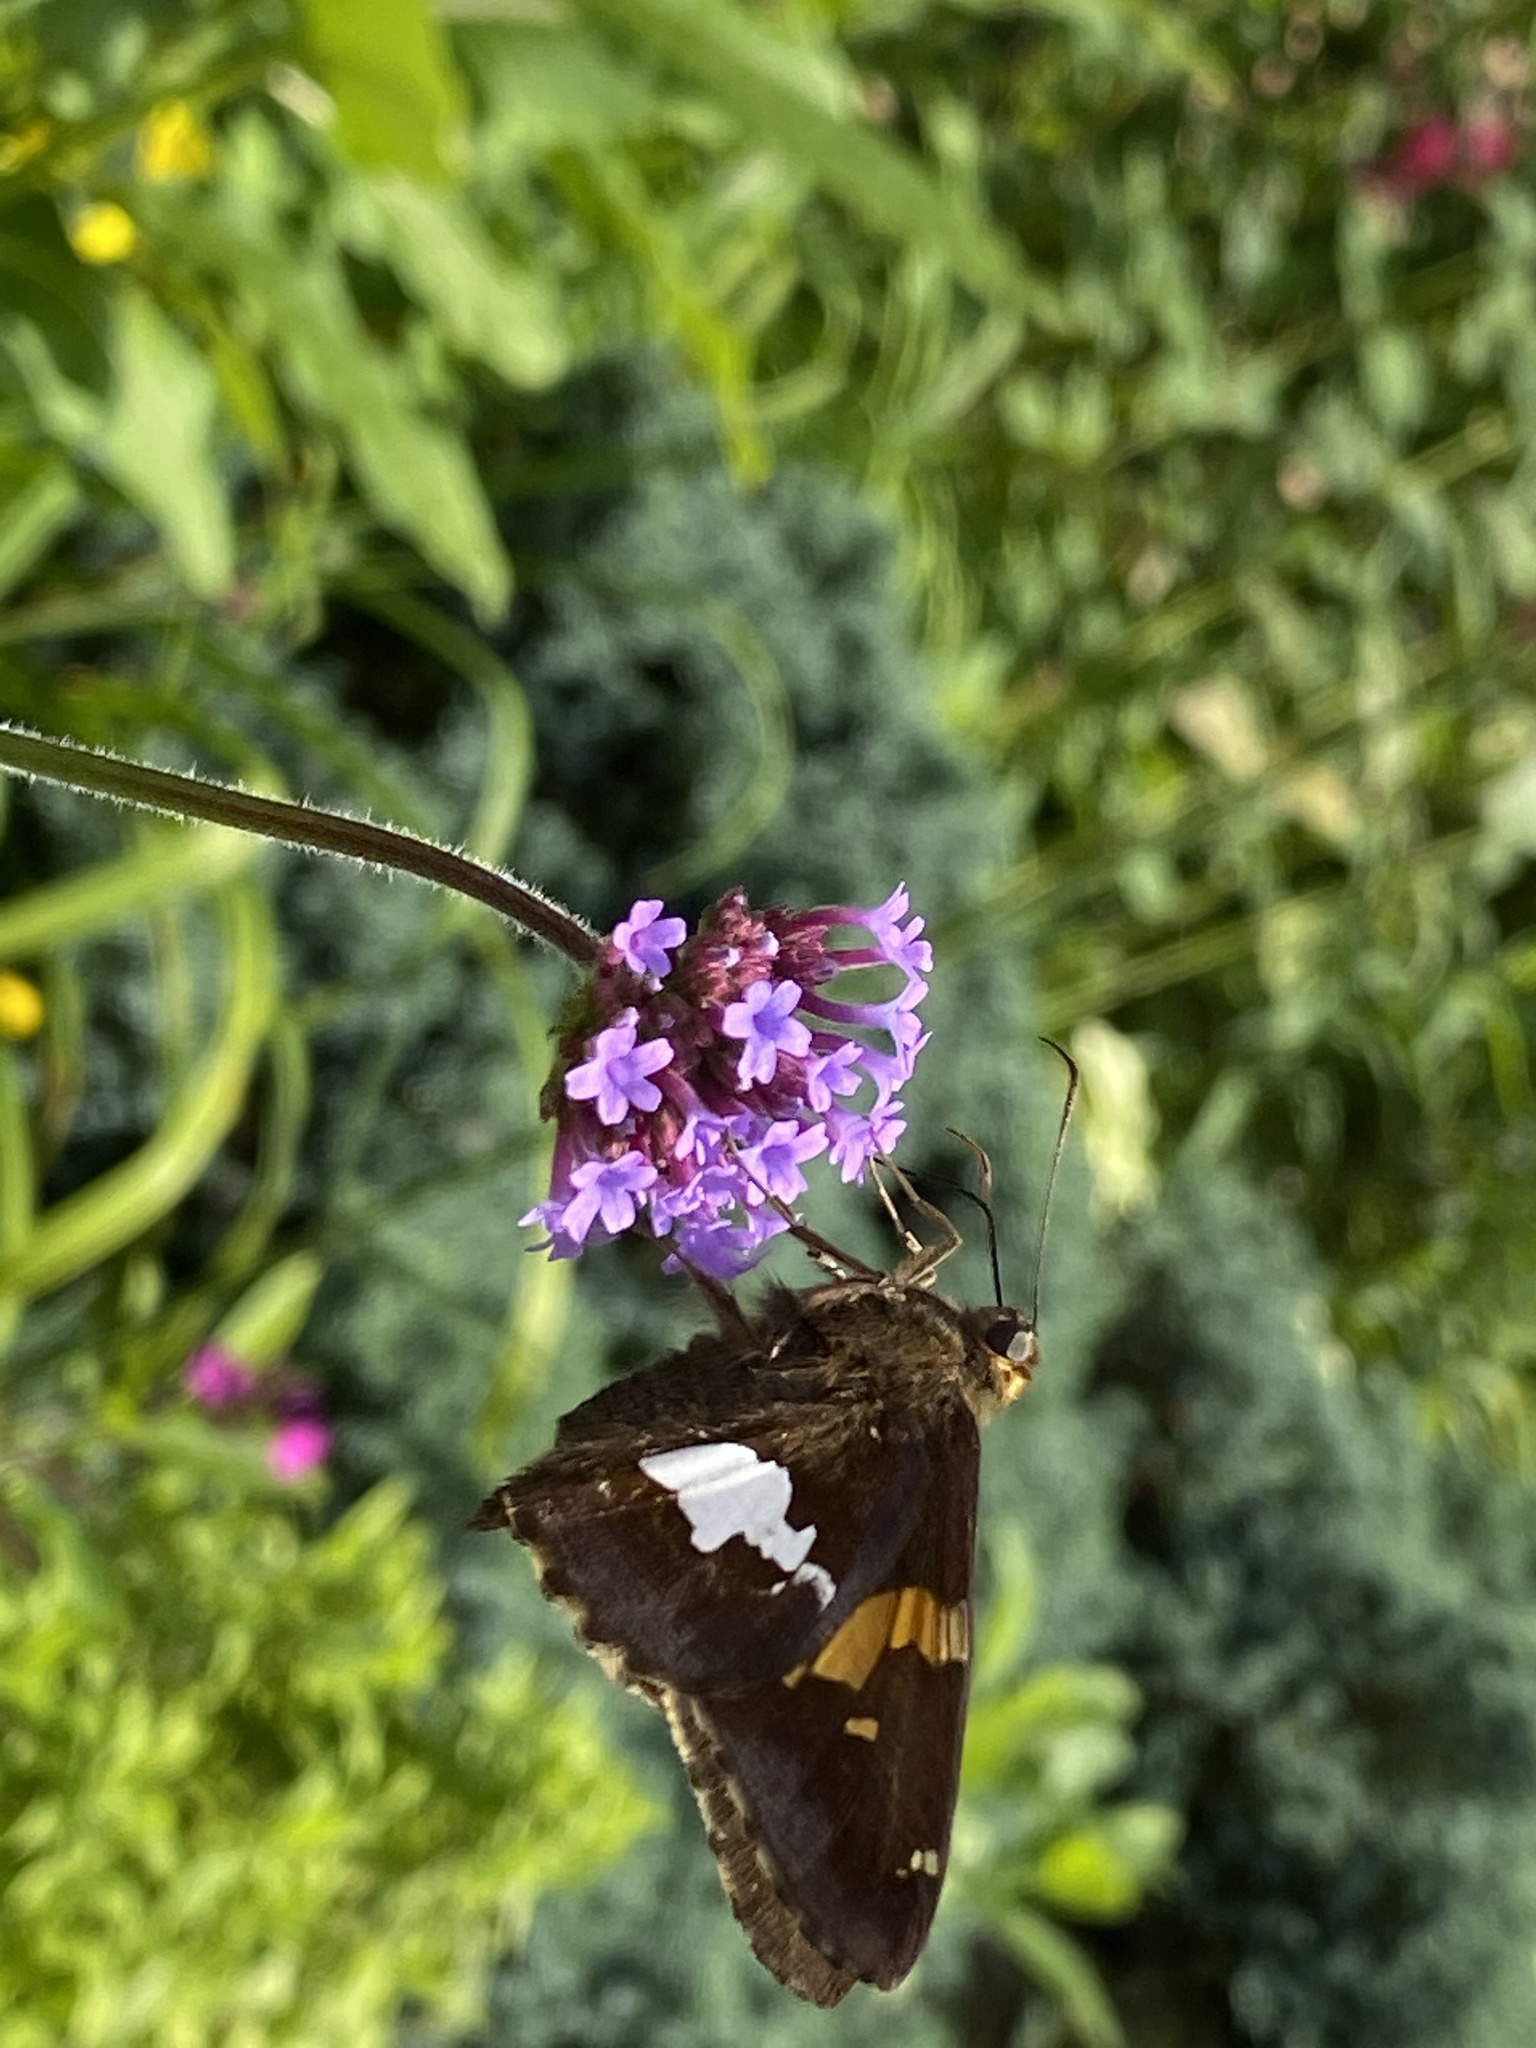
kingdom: Animalia
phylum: Arthropoda
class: Insecta
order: Lepidoptera
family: Hesperiidae
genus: Epargyreus
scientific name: Epargyreus clarus
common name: Silver-spotted skipper
